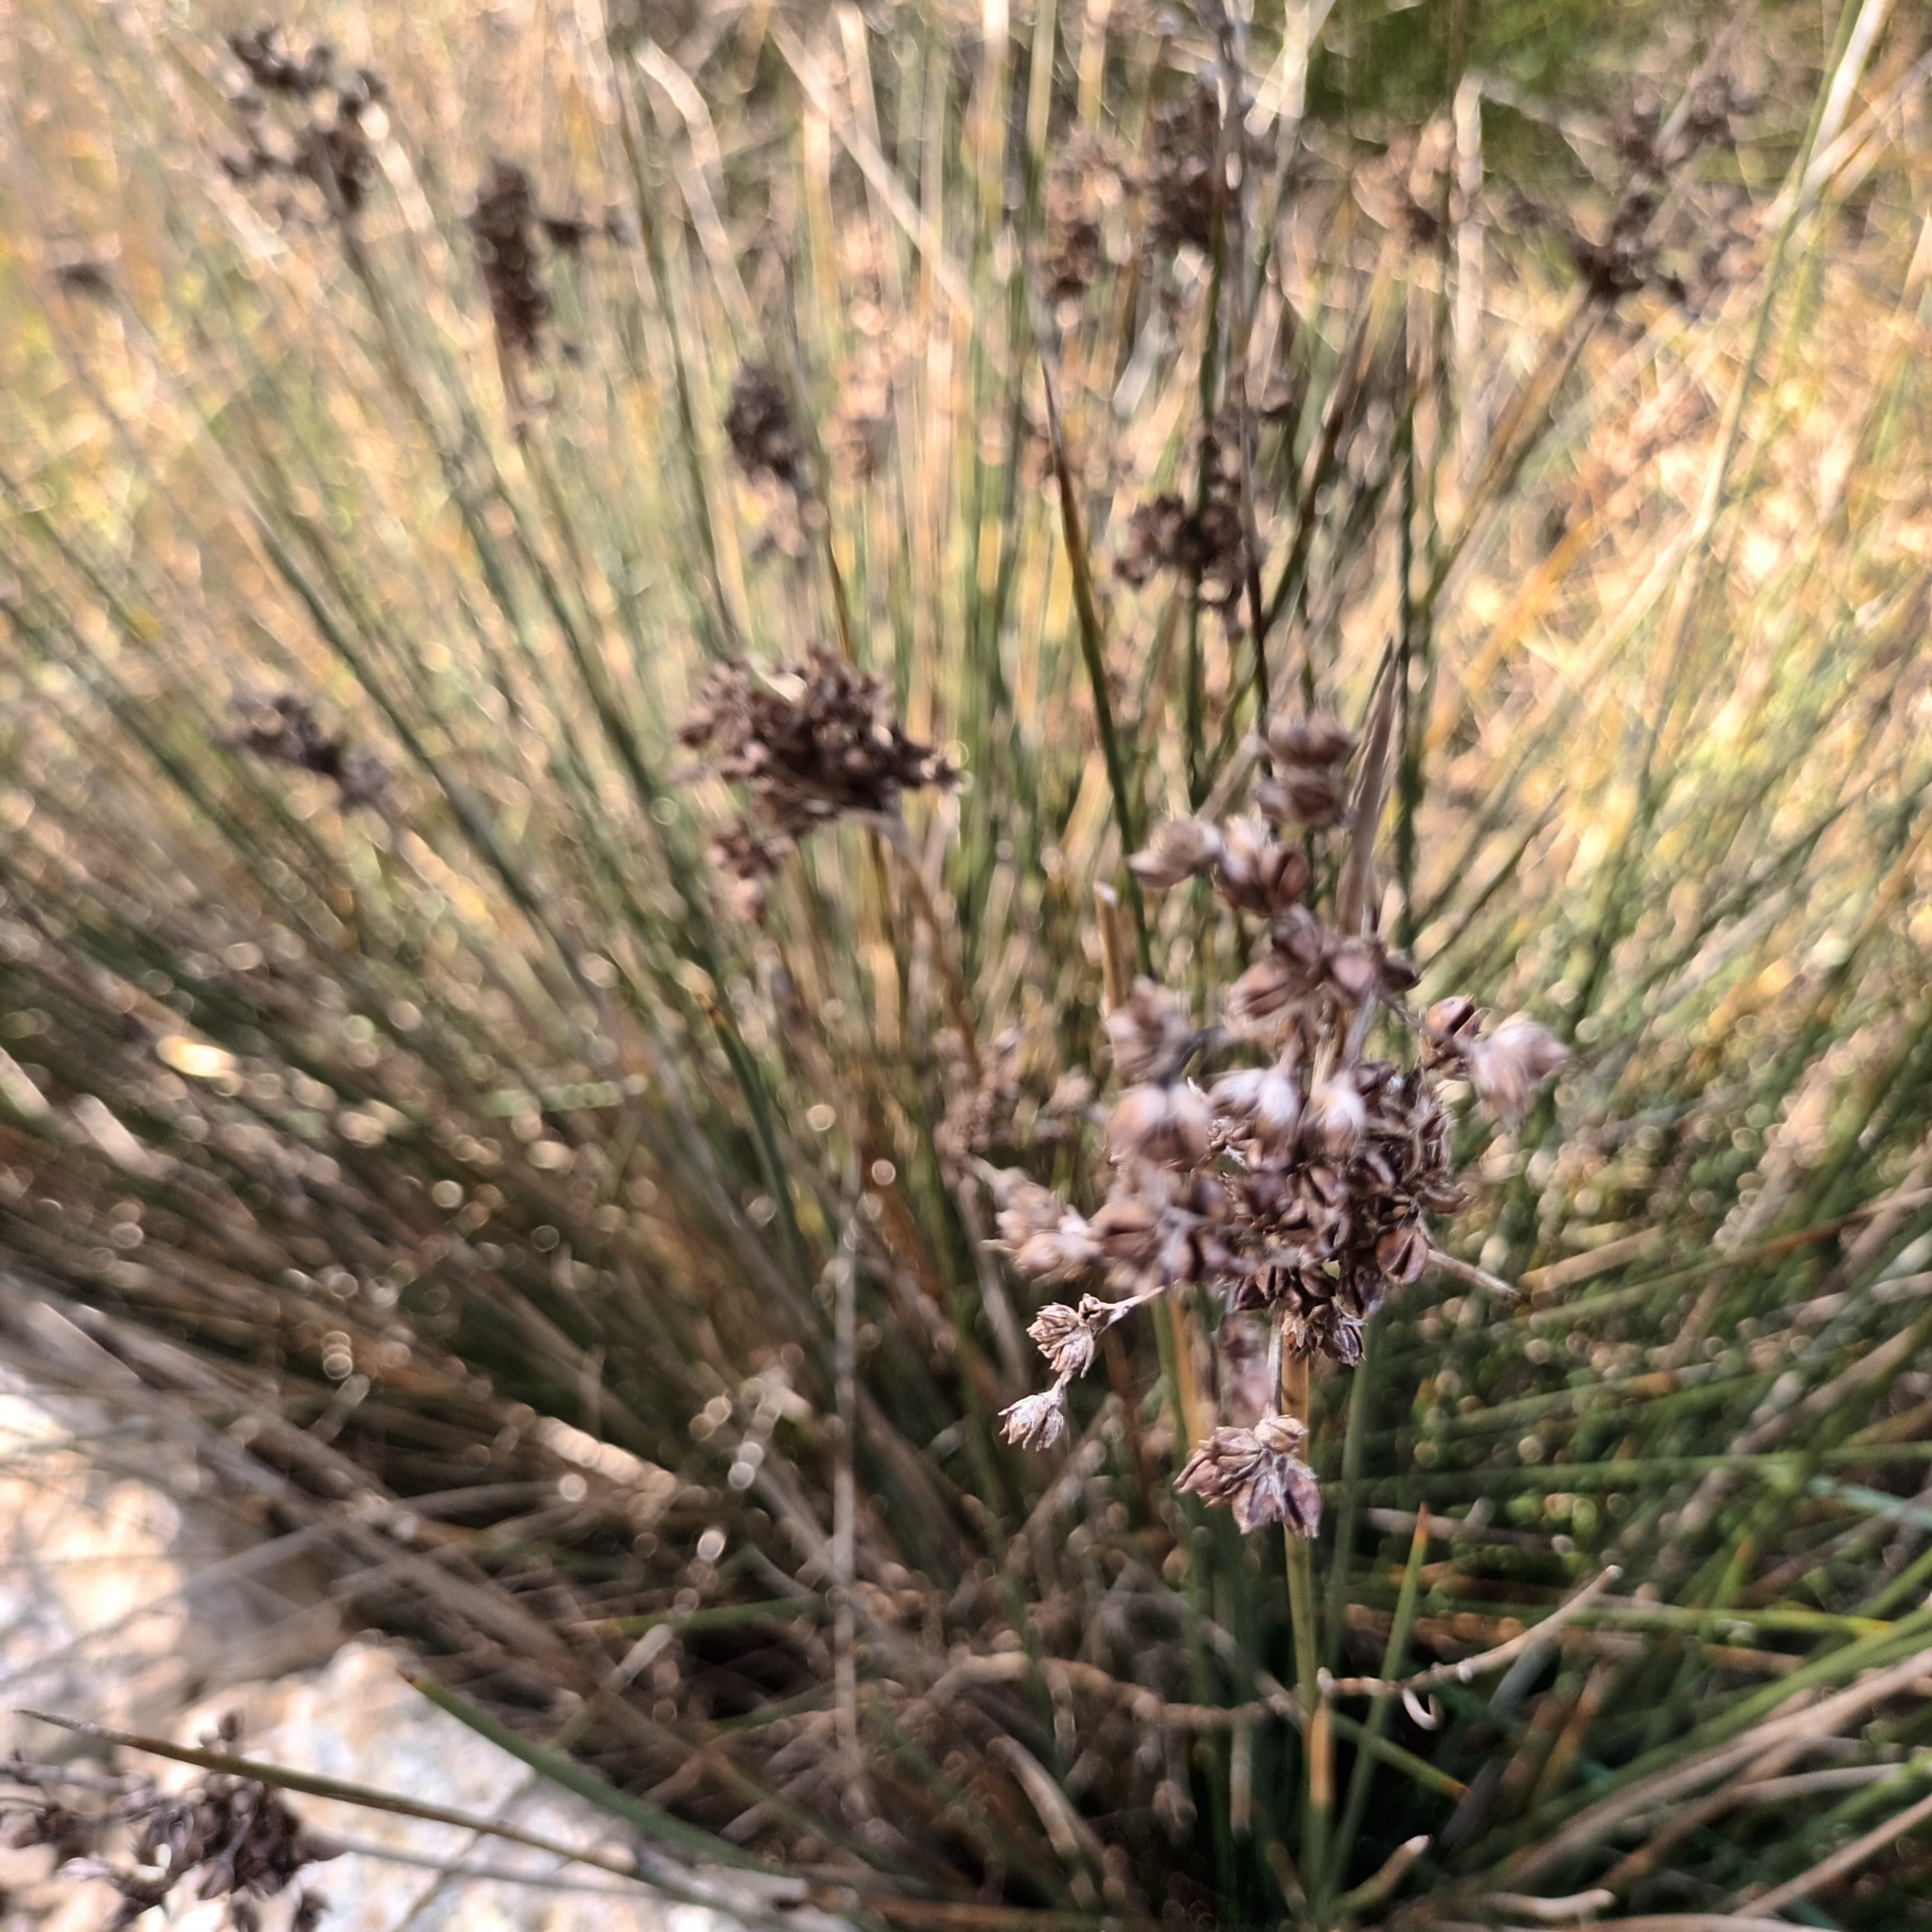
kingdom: Plantae
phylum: Tracheophyta
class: Liliopsida
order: Poales
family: Juncaceae
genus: Juncus
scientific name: Juncus acutus
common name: Sharp rush
